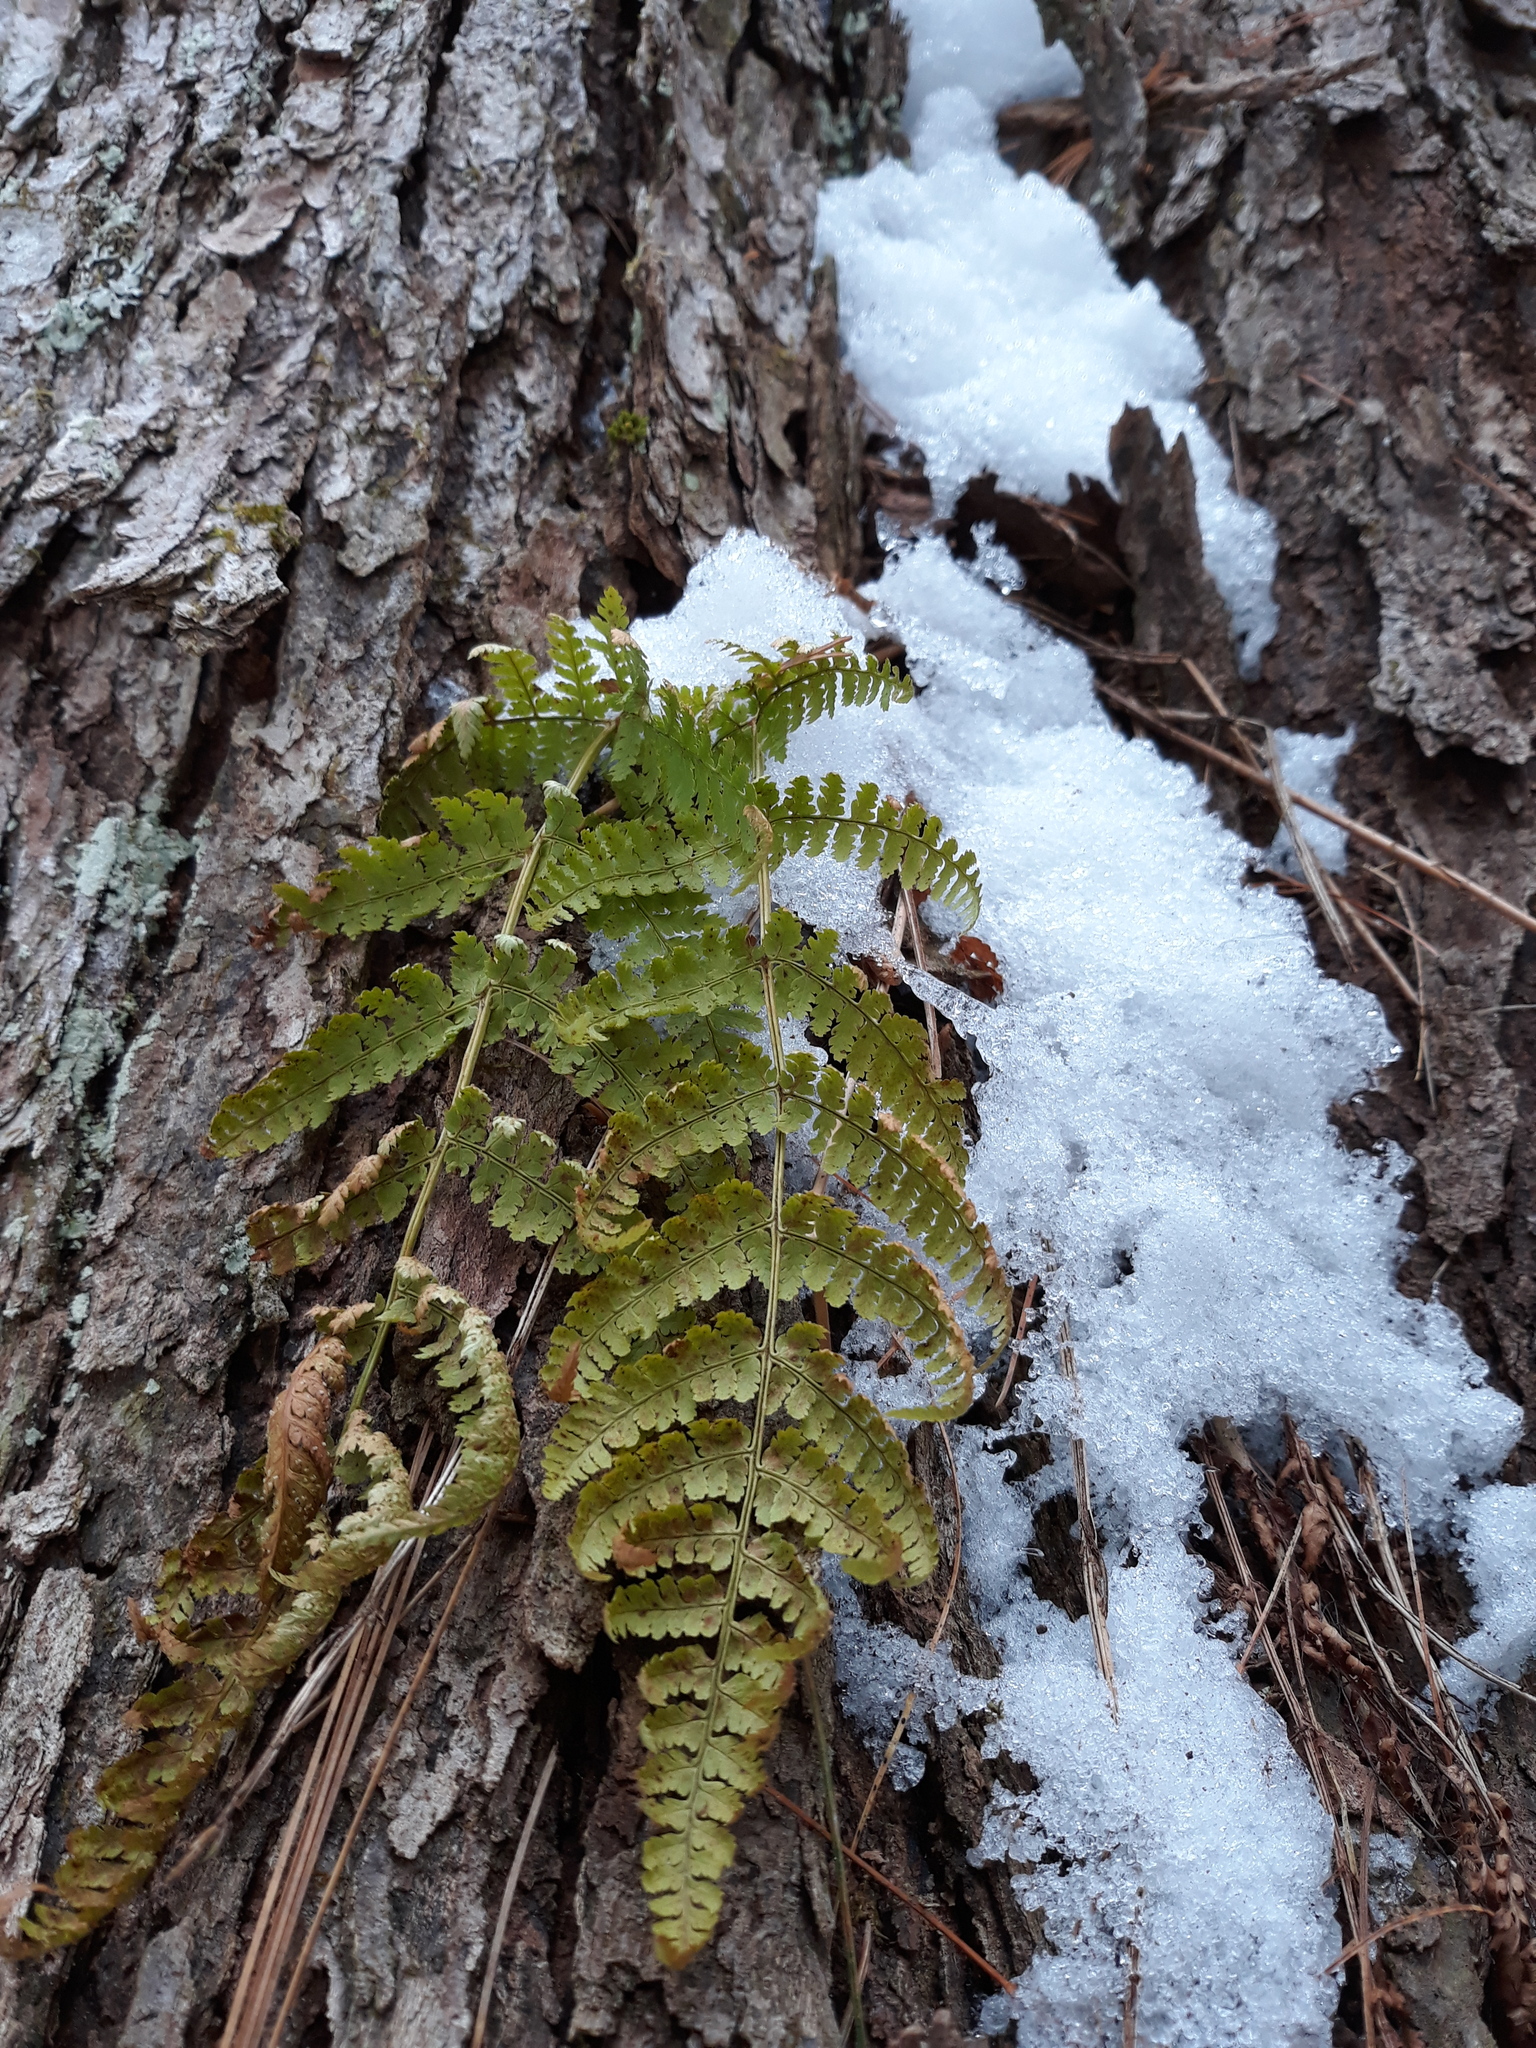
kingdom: Plantae
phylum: Tracheophyta
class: Polypodiopsida
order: Polypodiales
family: Dryopteridaceae
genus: Dryopteris
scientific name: Dryopteris intermedia
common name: Evergreen wood fern
